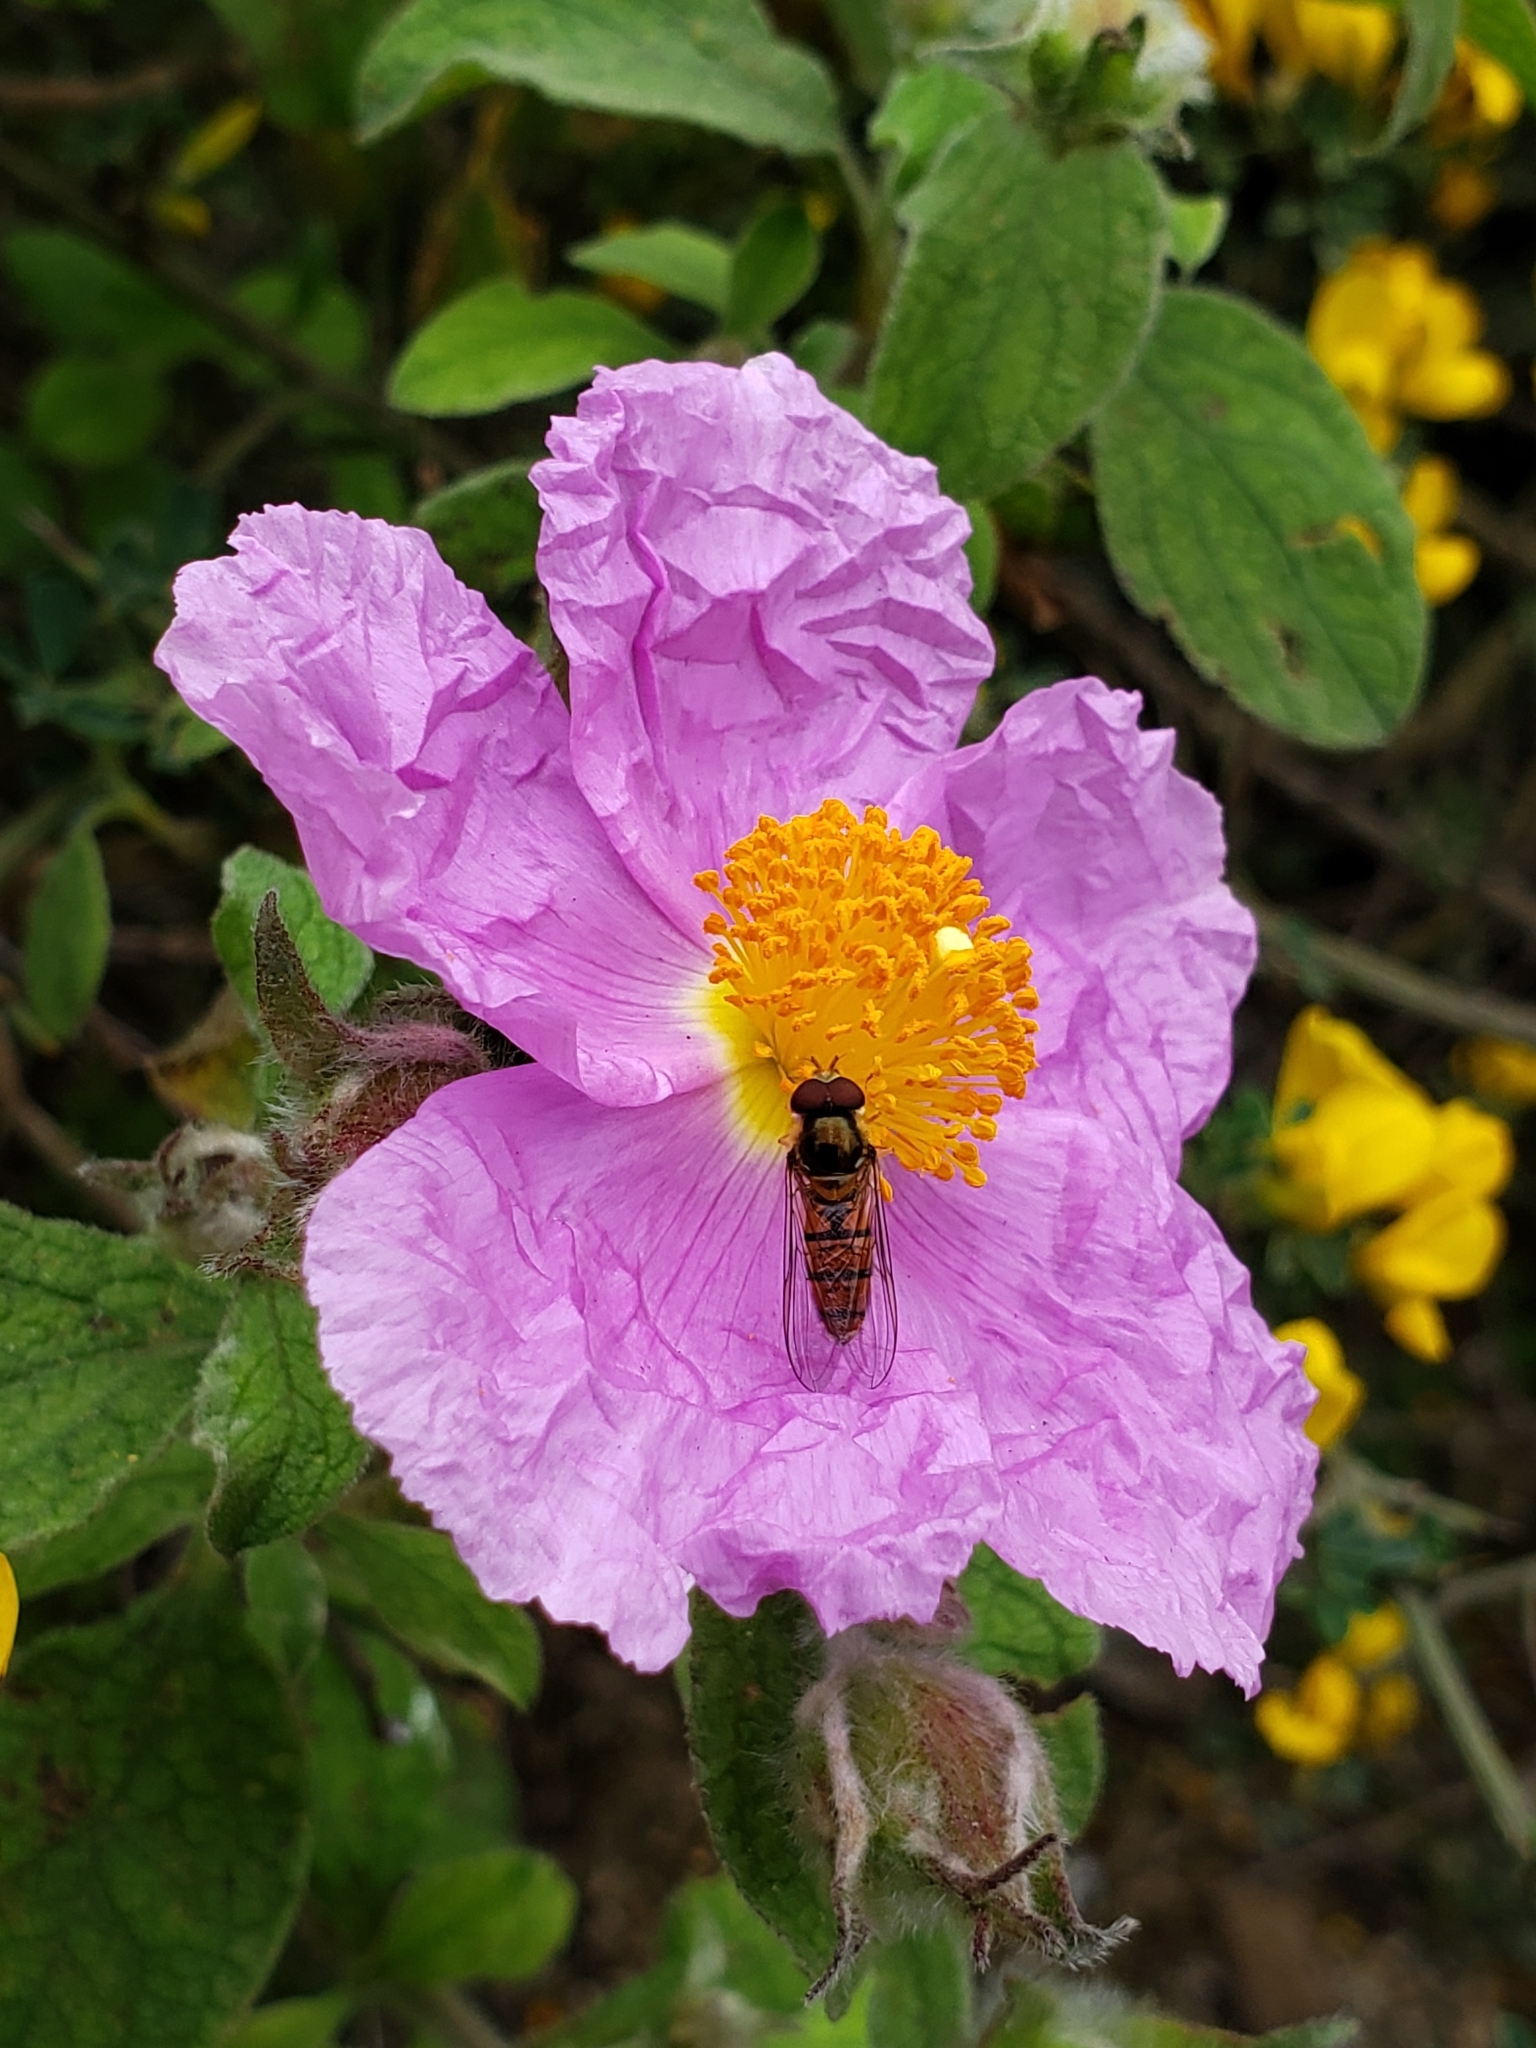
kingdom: Plantae
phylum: Tracheophyta
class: Magnoliopsida
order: Malvales
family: Cistaceae
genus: Cistus
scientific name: Cistus creticus
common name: Cretan rockrose
